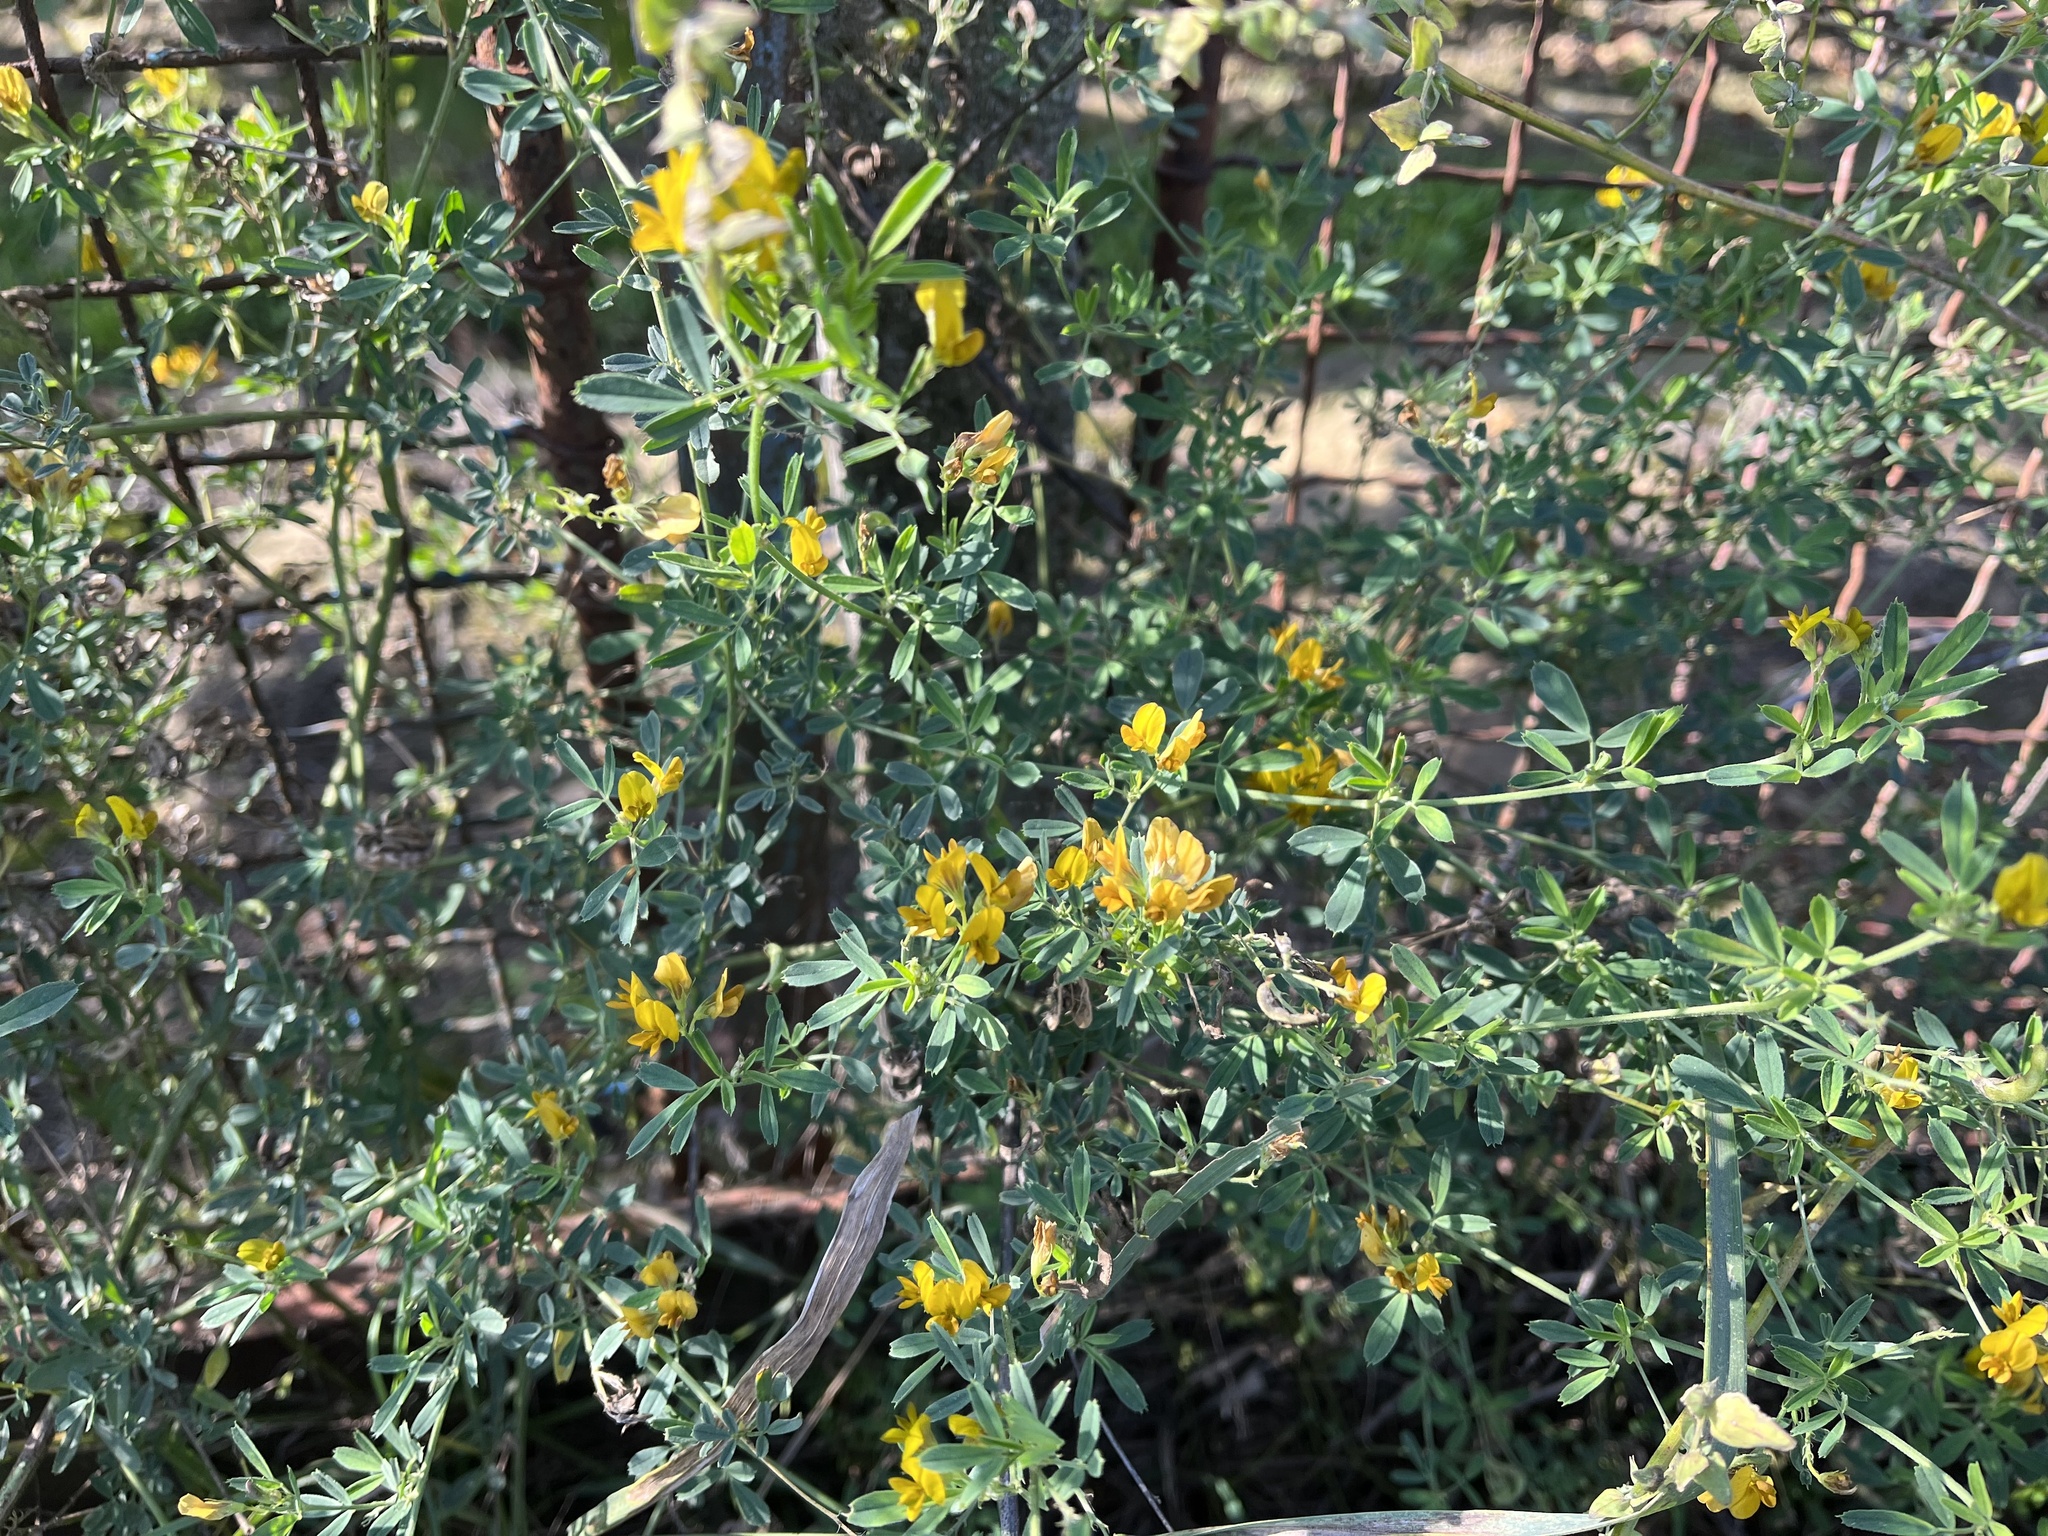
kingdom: Plantae
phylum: Tracheophyta
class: Magnoliopsida
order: Fabales
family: Fabaceae
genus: Medicago
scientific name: Medicago falcata
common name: Sickle medick
